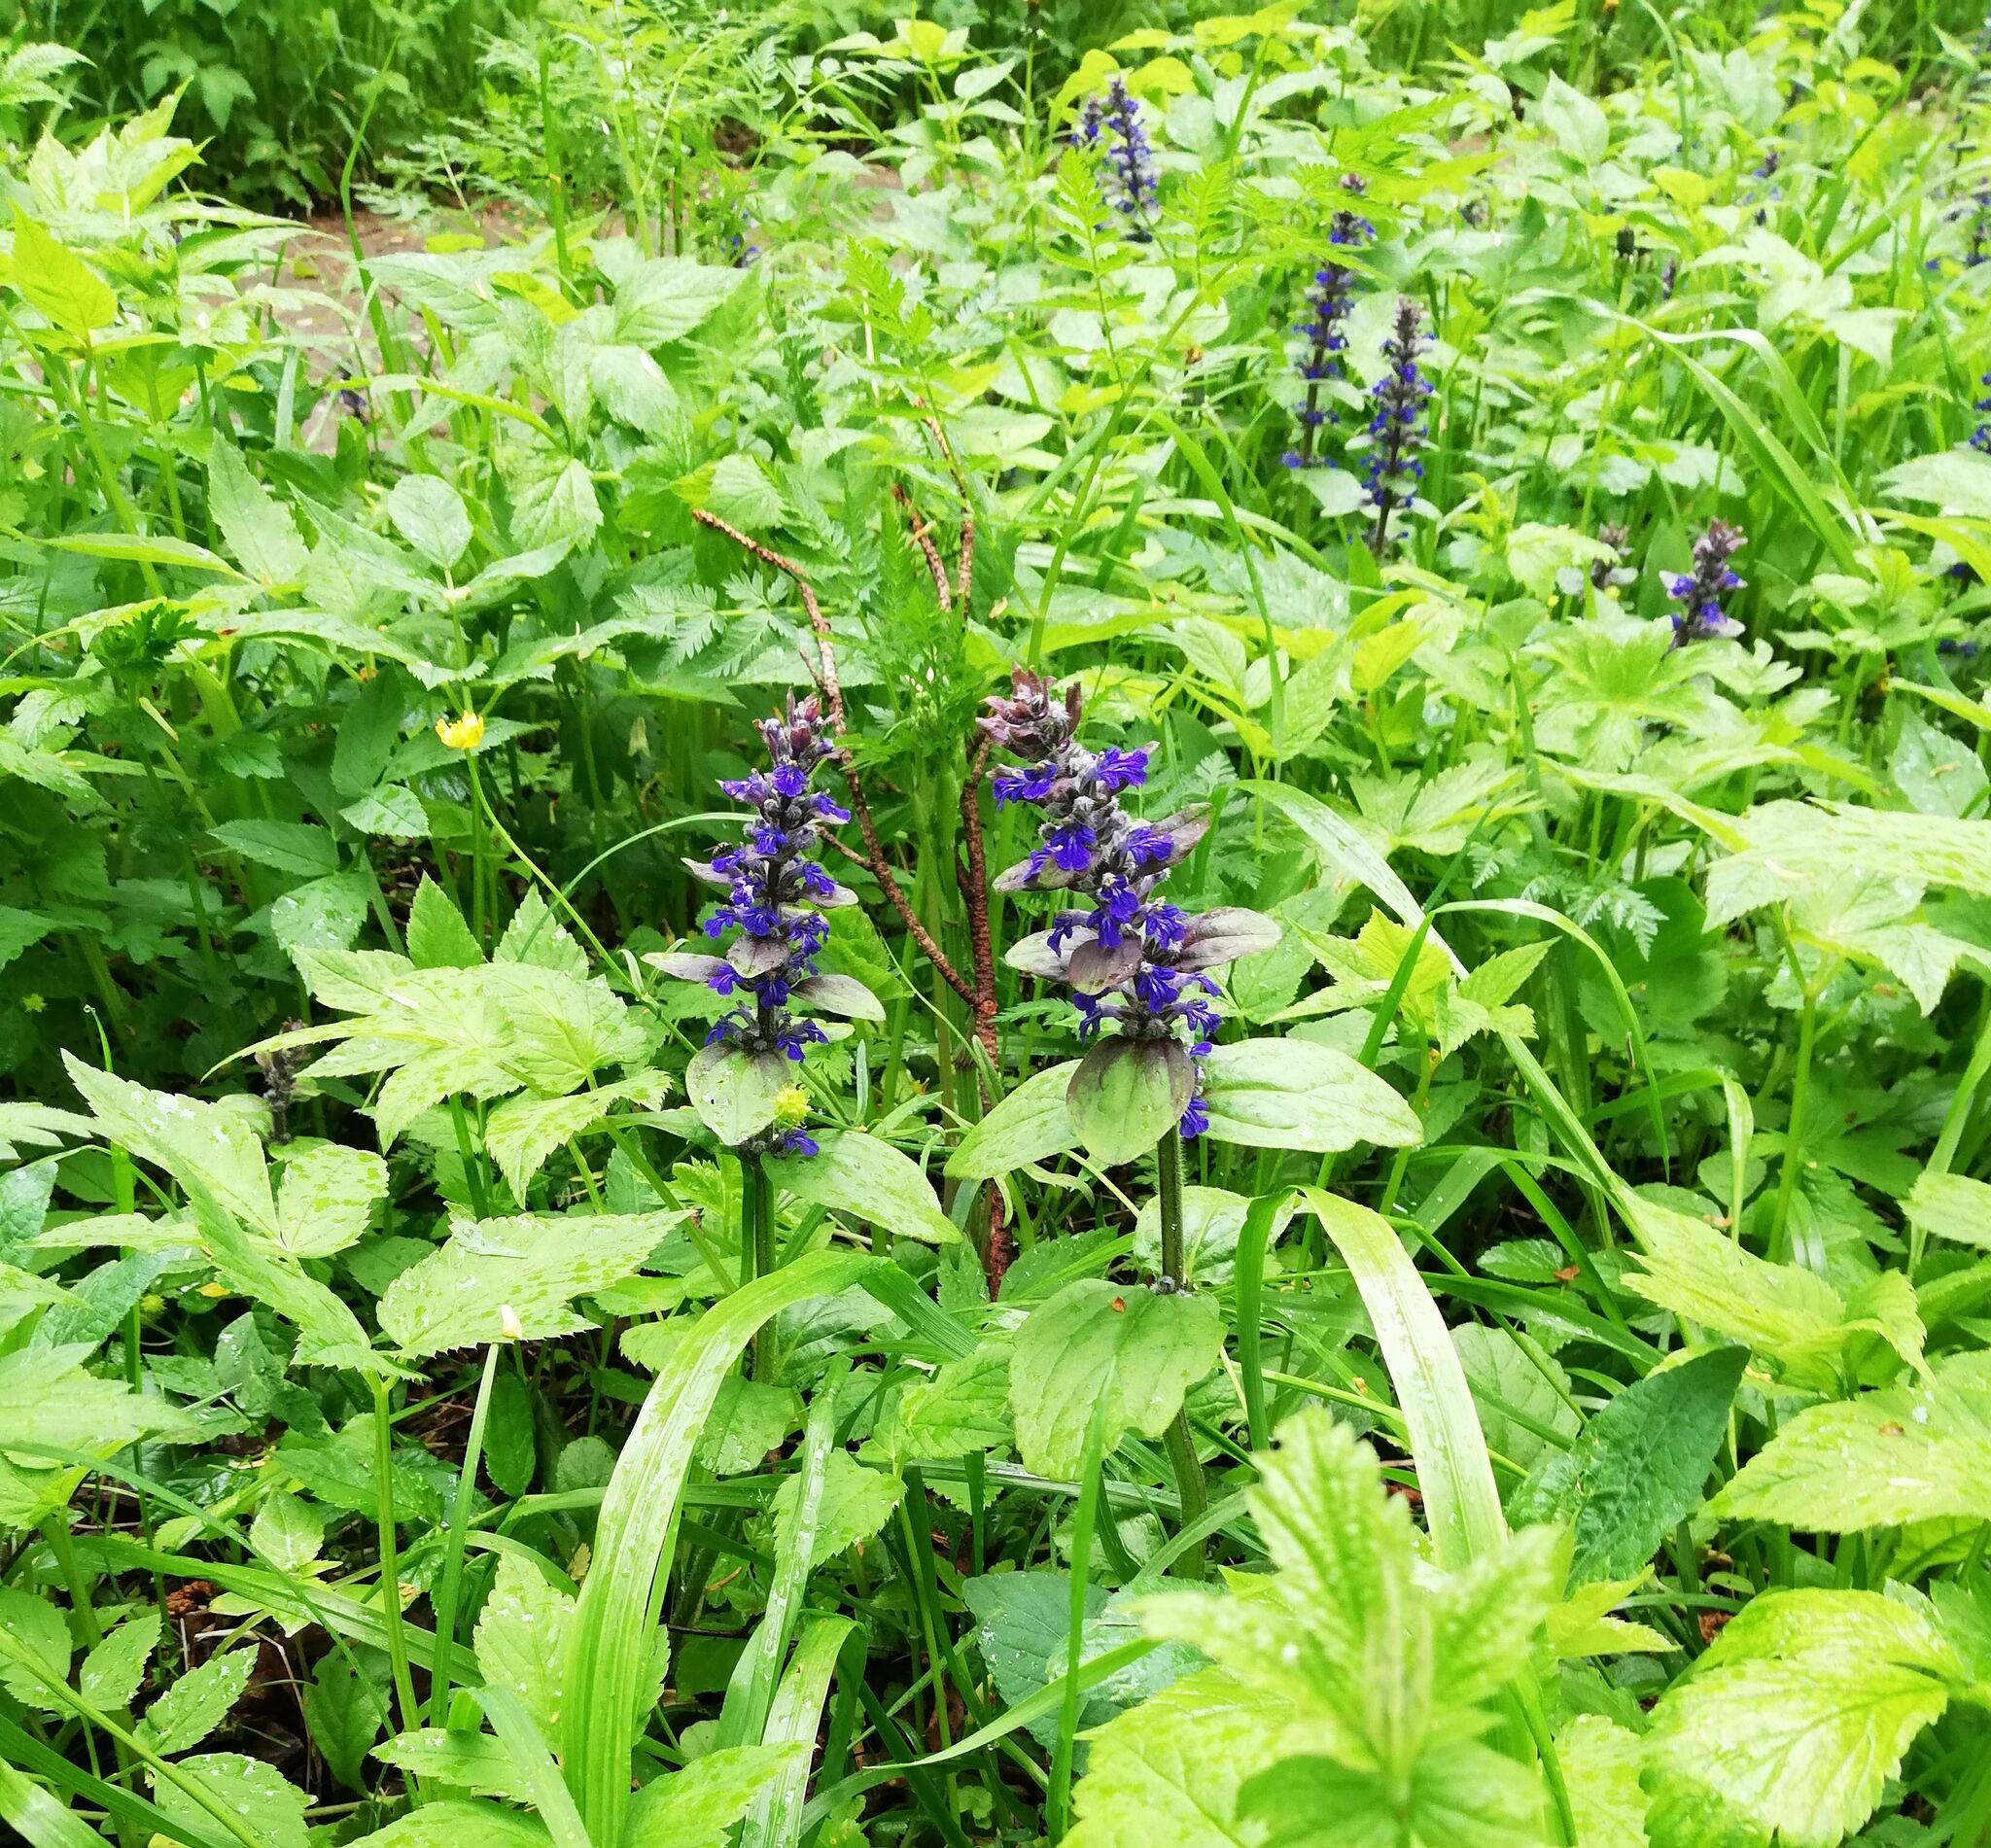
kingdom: Plantae
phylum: Tracheophyta
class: Magnoliopsida
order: Lamiales
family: Lamiaceae
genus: Ajuga
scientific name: Ajuga reptans
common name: Bugle
